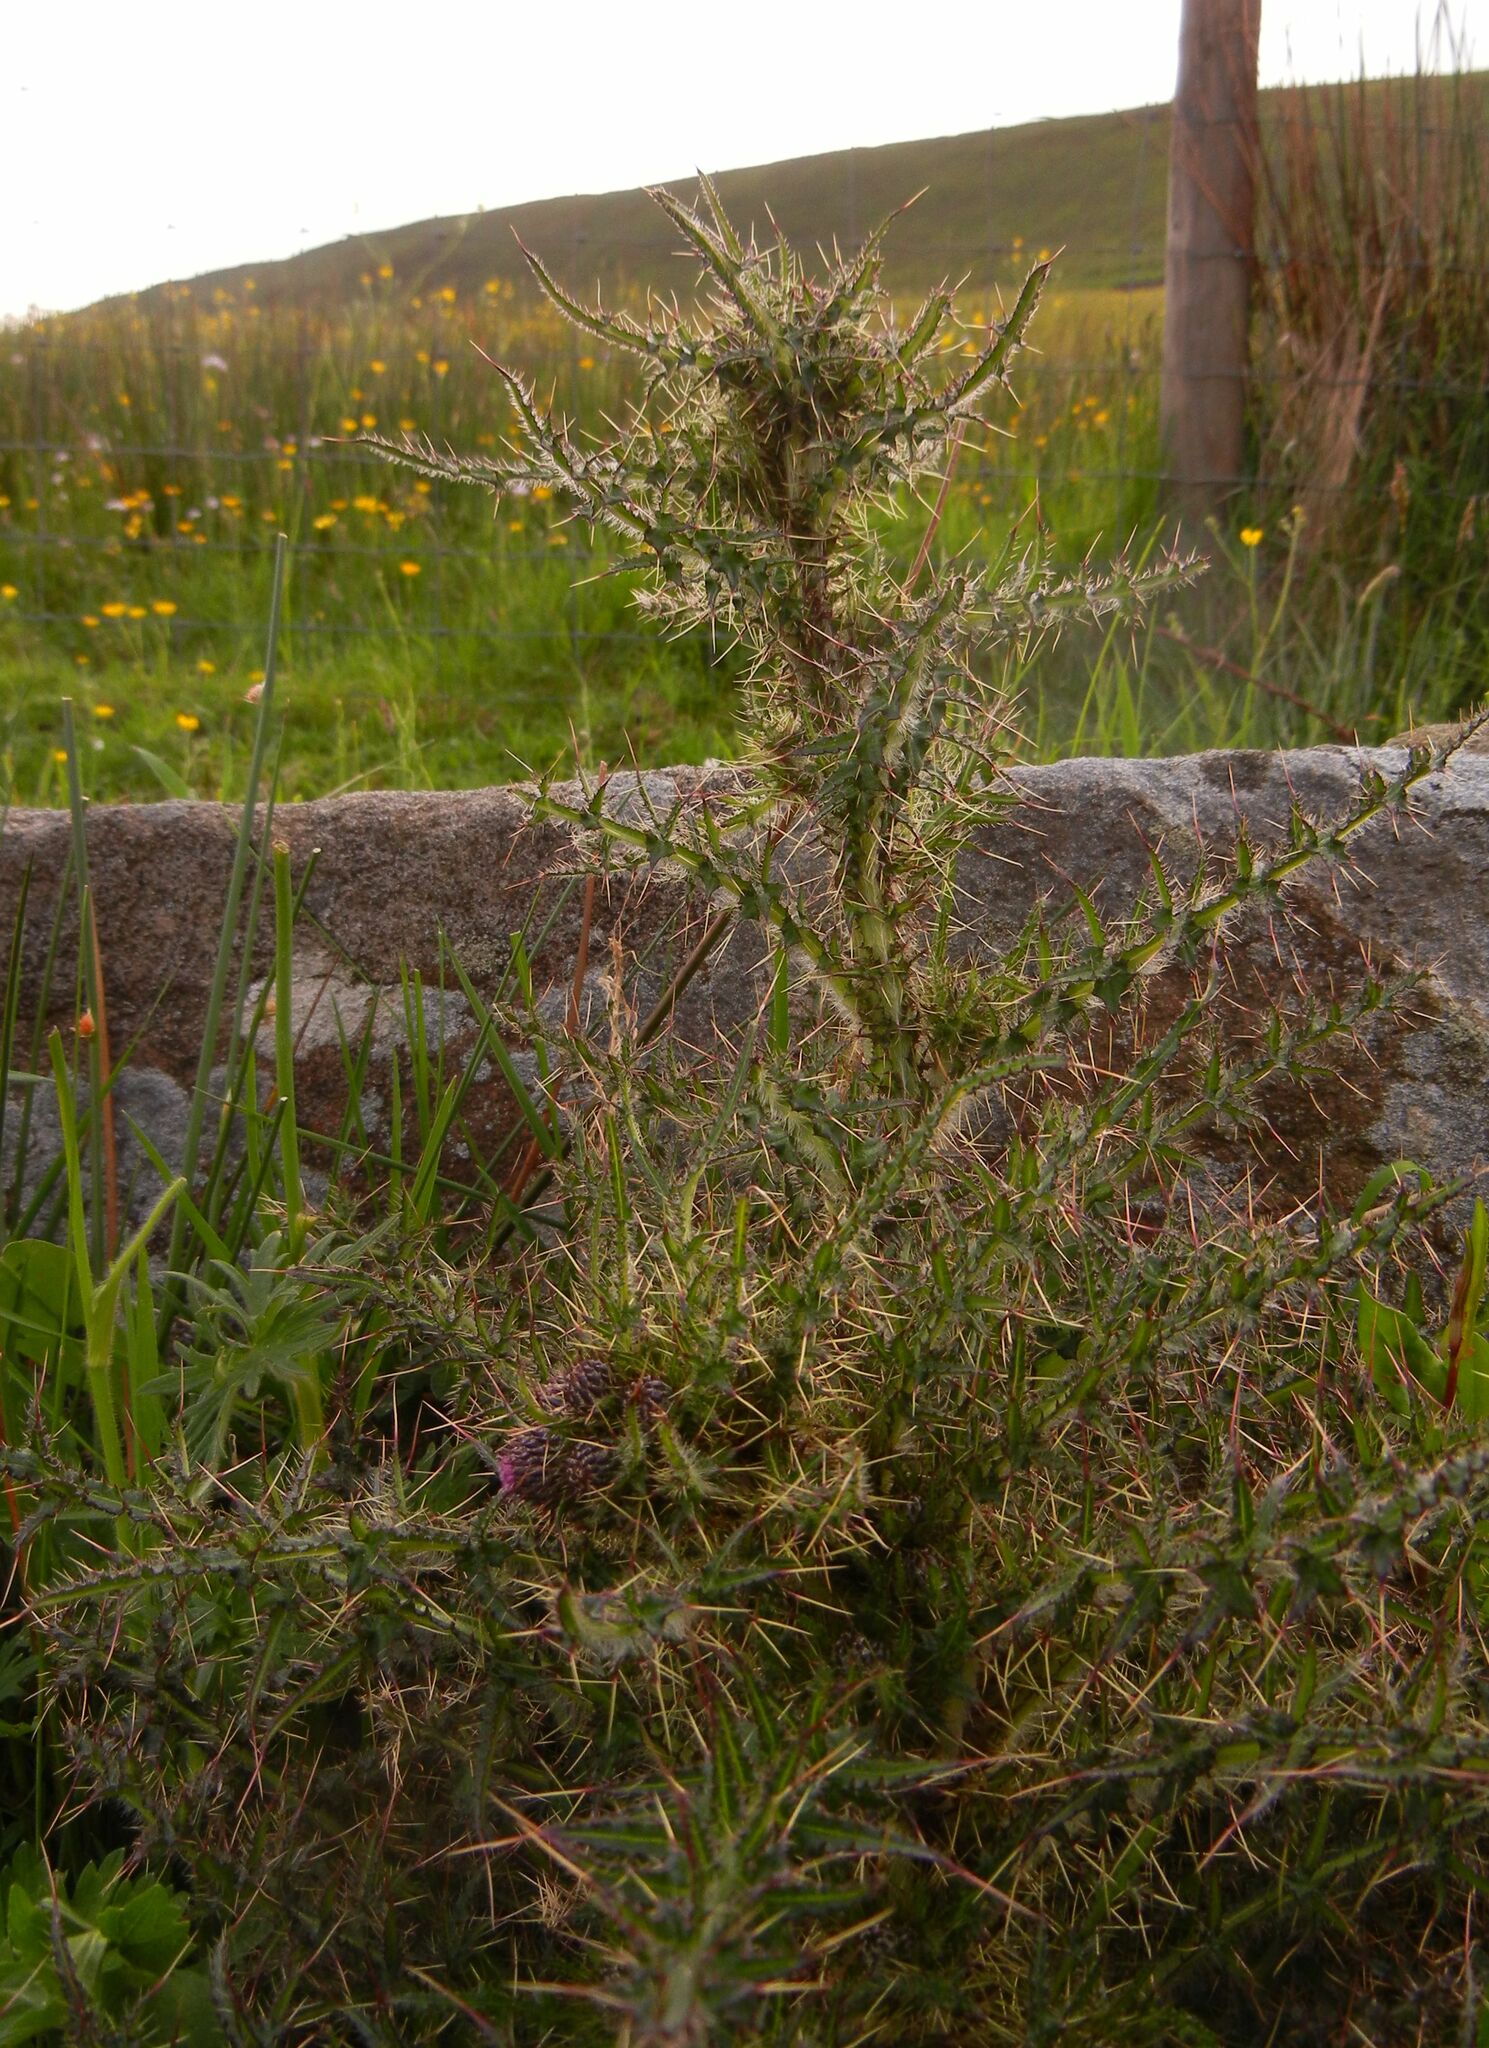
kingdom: Plantae
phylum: Tracheophyta
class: Magnoliopsida
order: Asterales
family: Asteraceae
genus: Cirsium
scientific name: Cirsium palustre
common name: Marsh thistle
